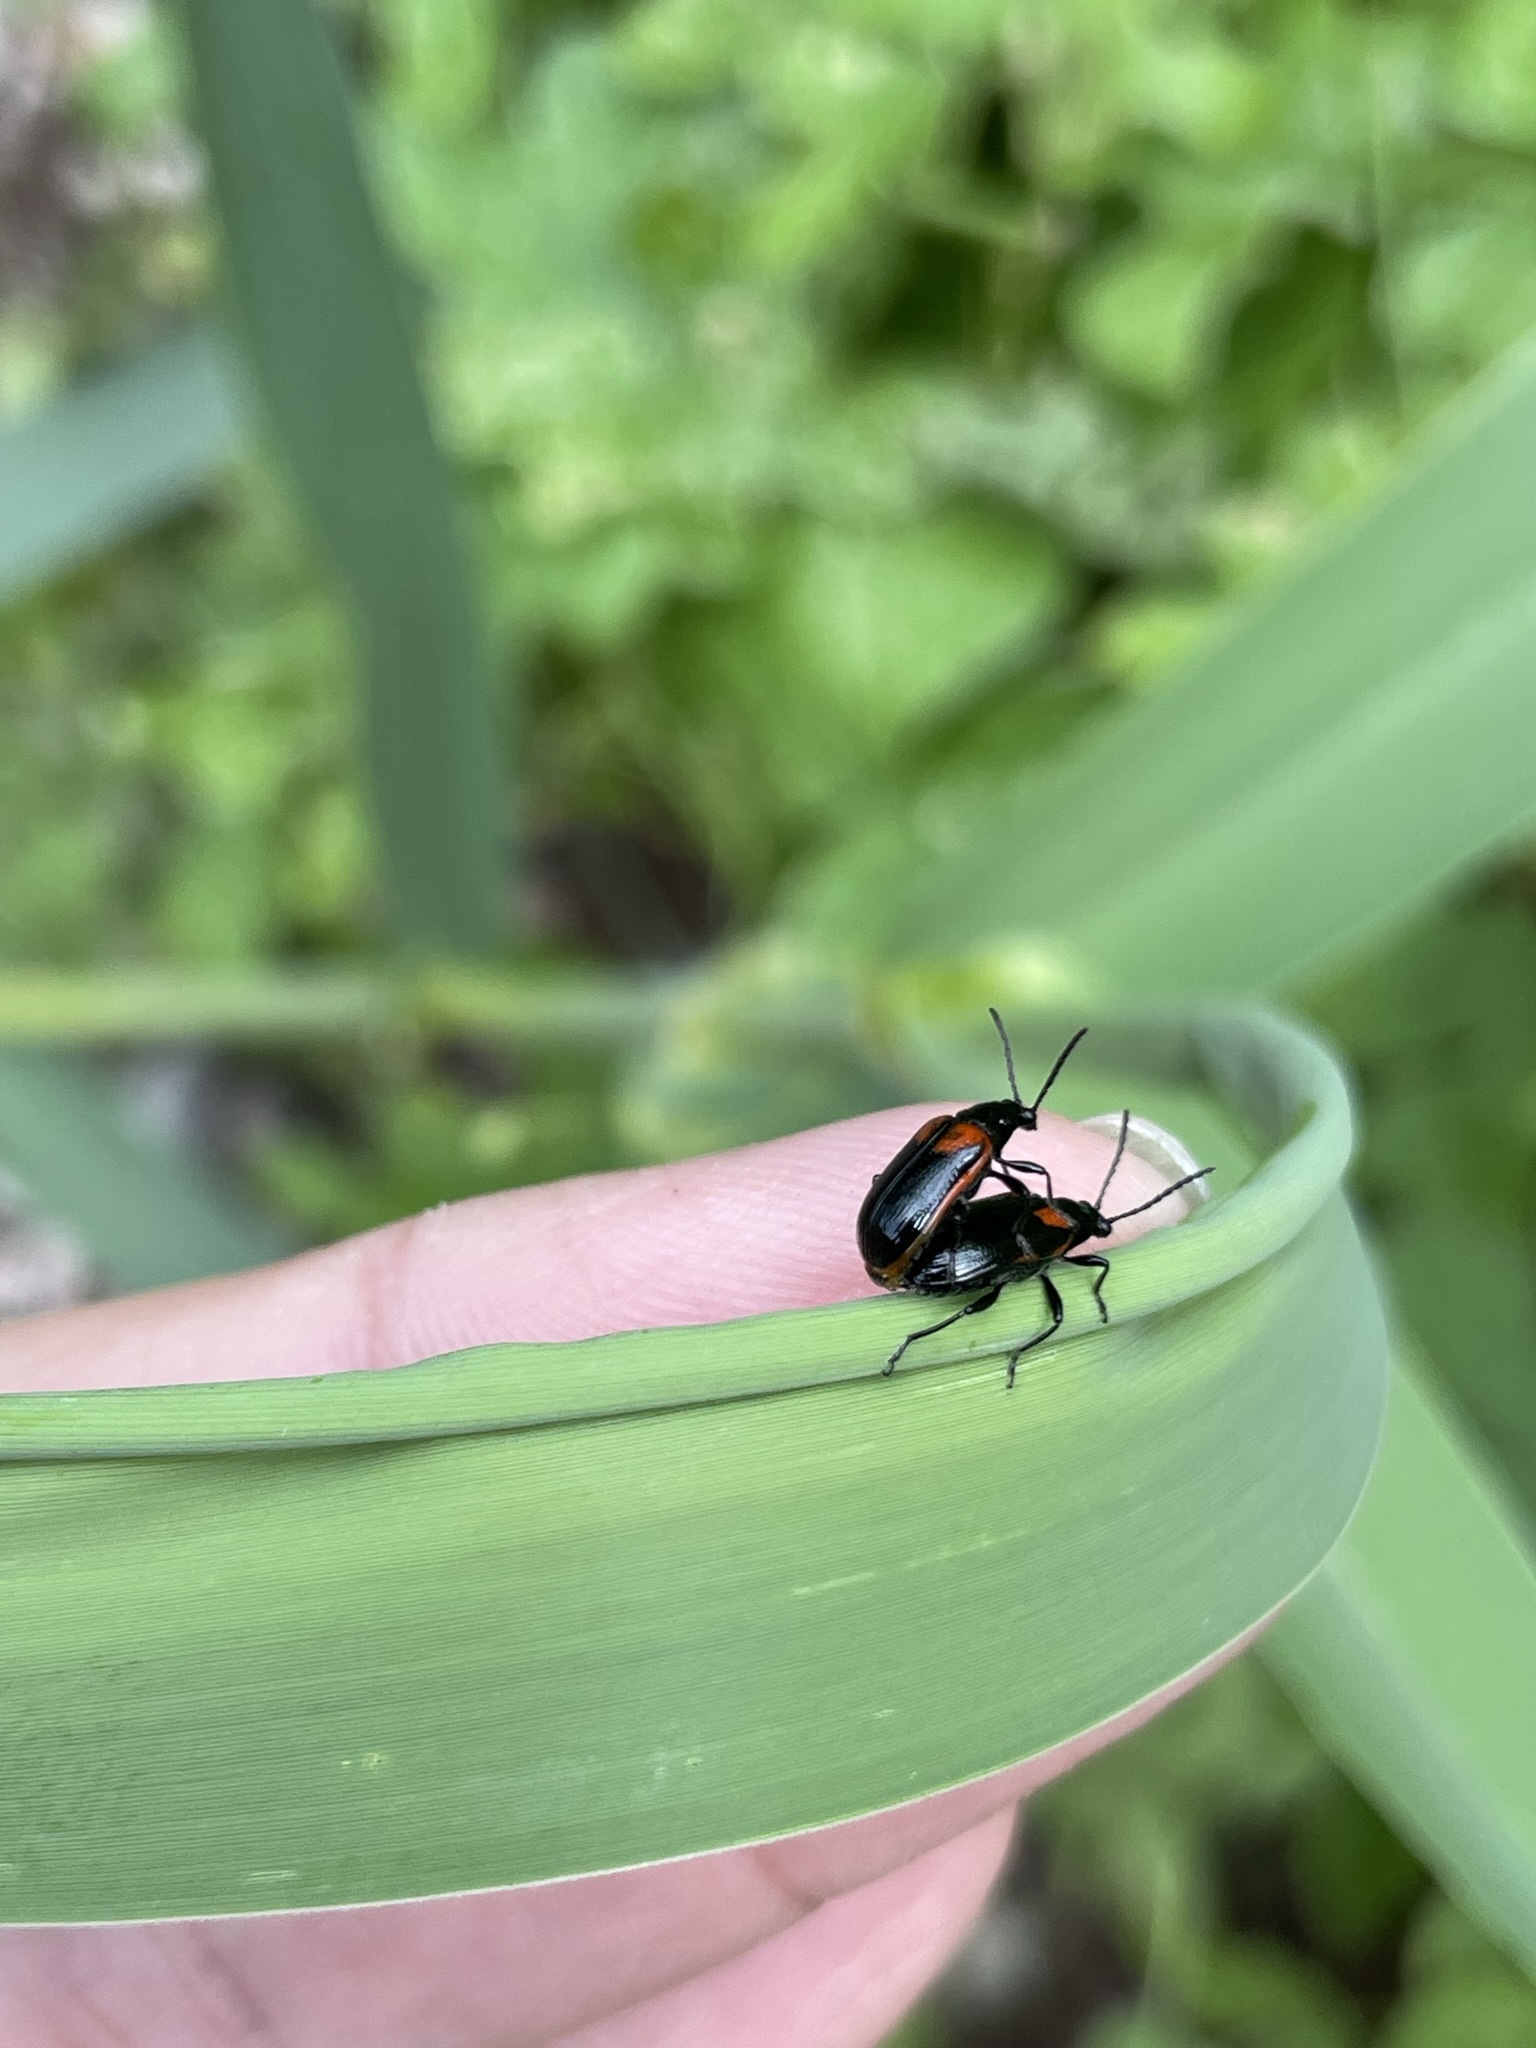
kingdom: Animalia
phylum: Arthropoda
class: Insecta
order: Coleoptera
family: Chrysomelidae
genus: Lema
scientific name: Lema confusa
